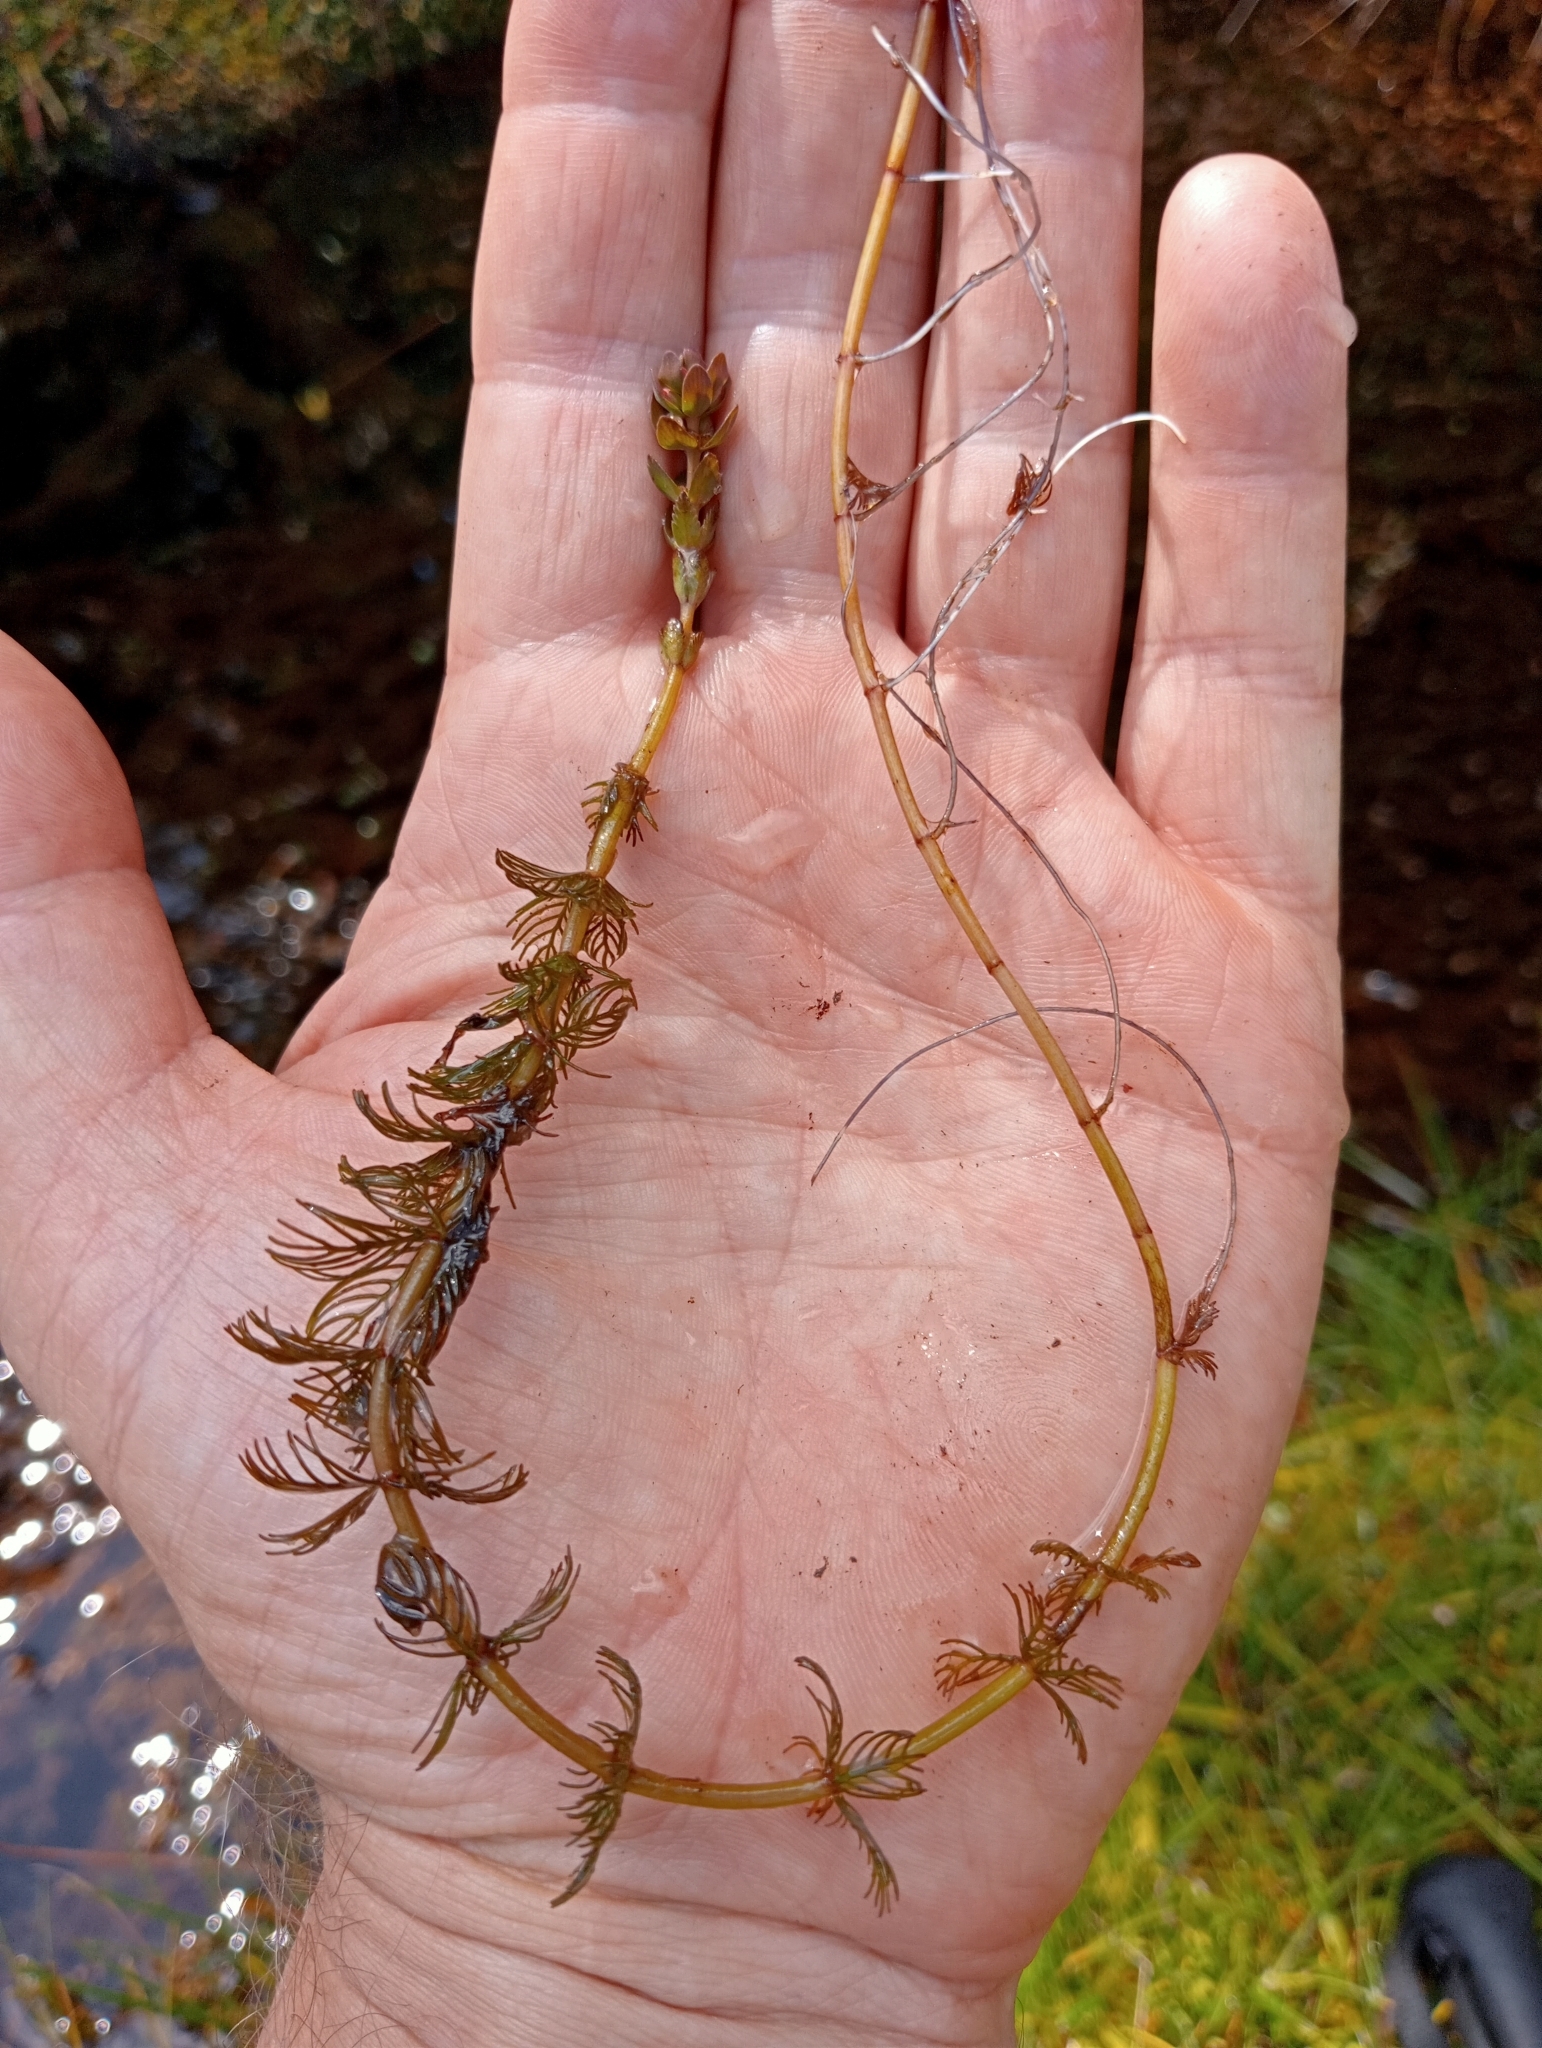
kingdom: Plantae
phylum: Tracheophyta
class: Magnoliopsida
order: Saxifragales
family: Haloragaceae
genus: Myriophyllum
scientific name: Myriophyllum propinquum
